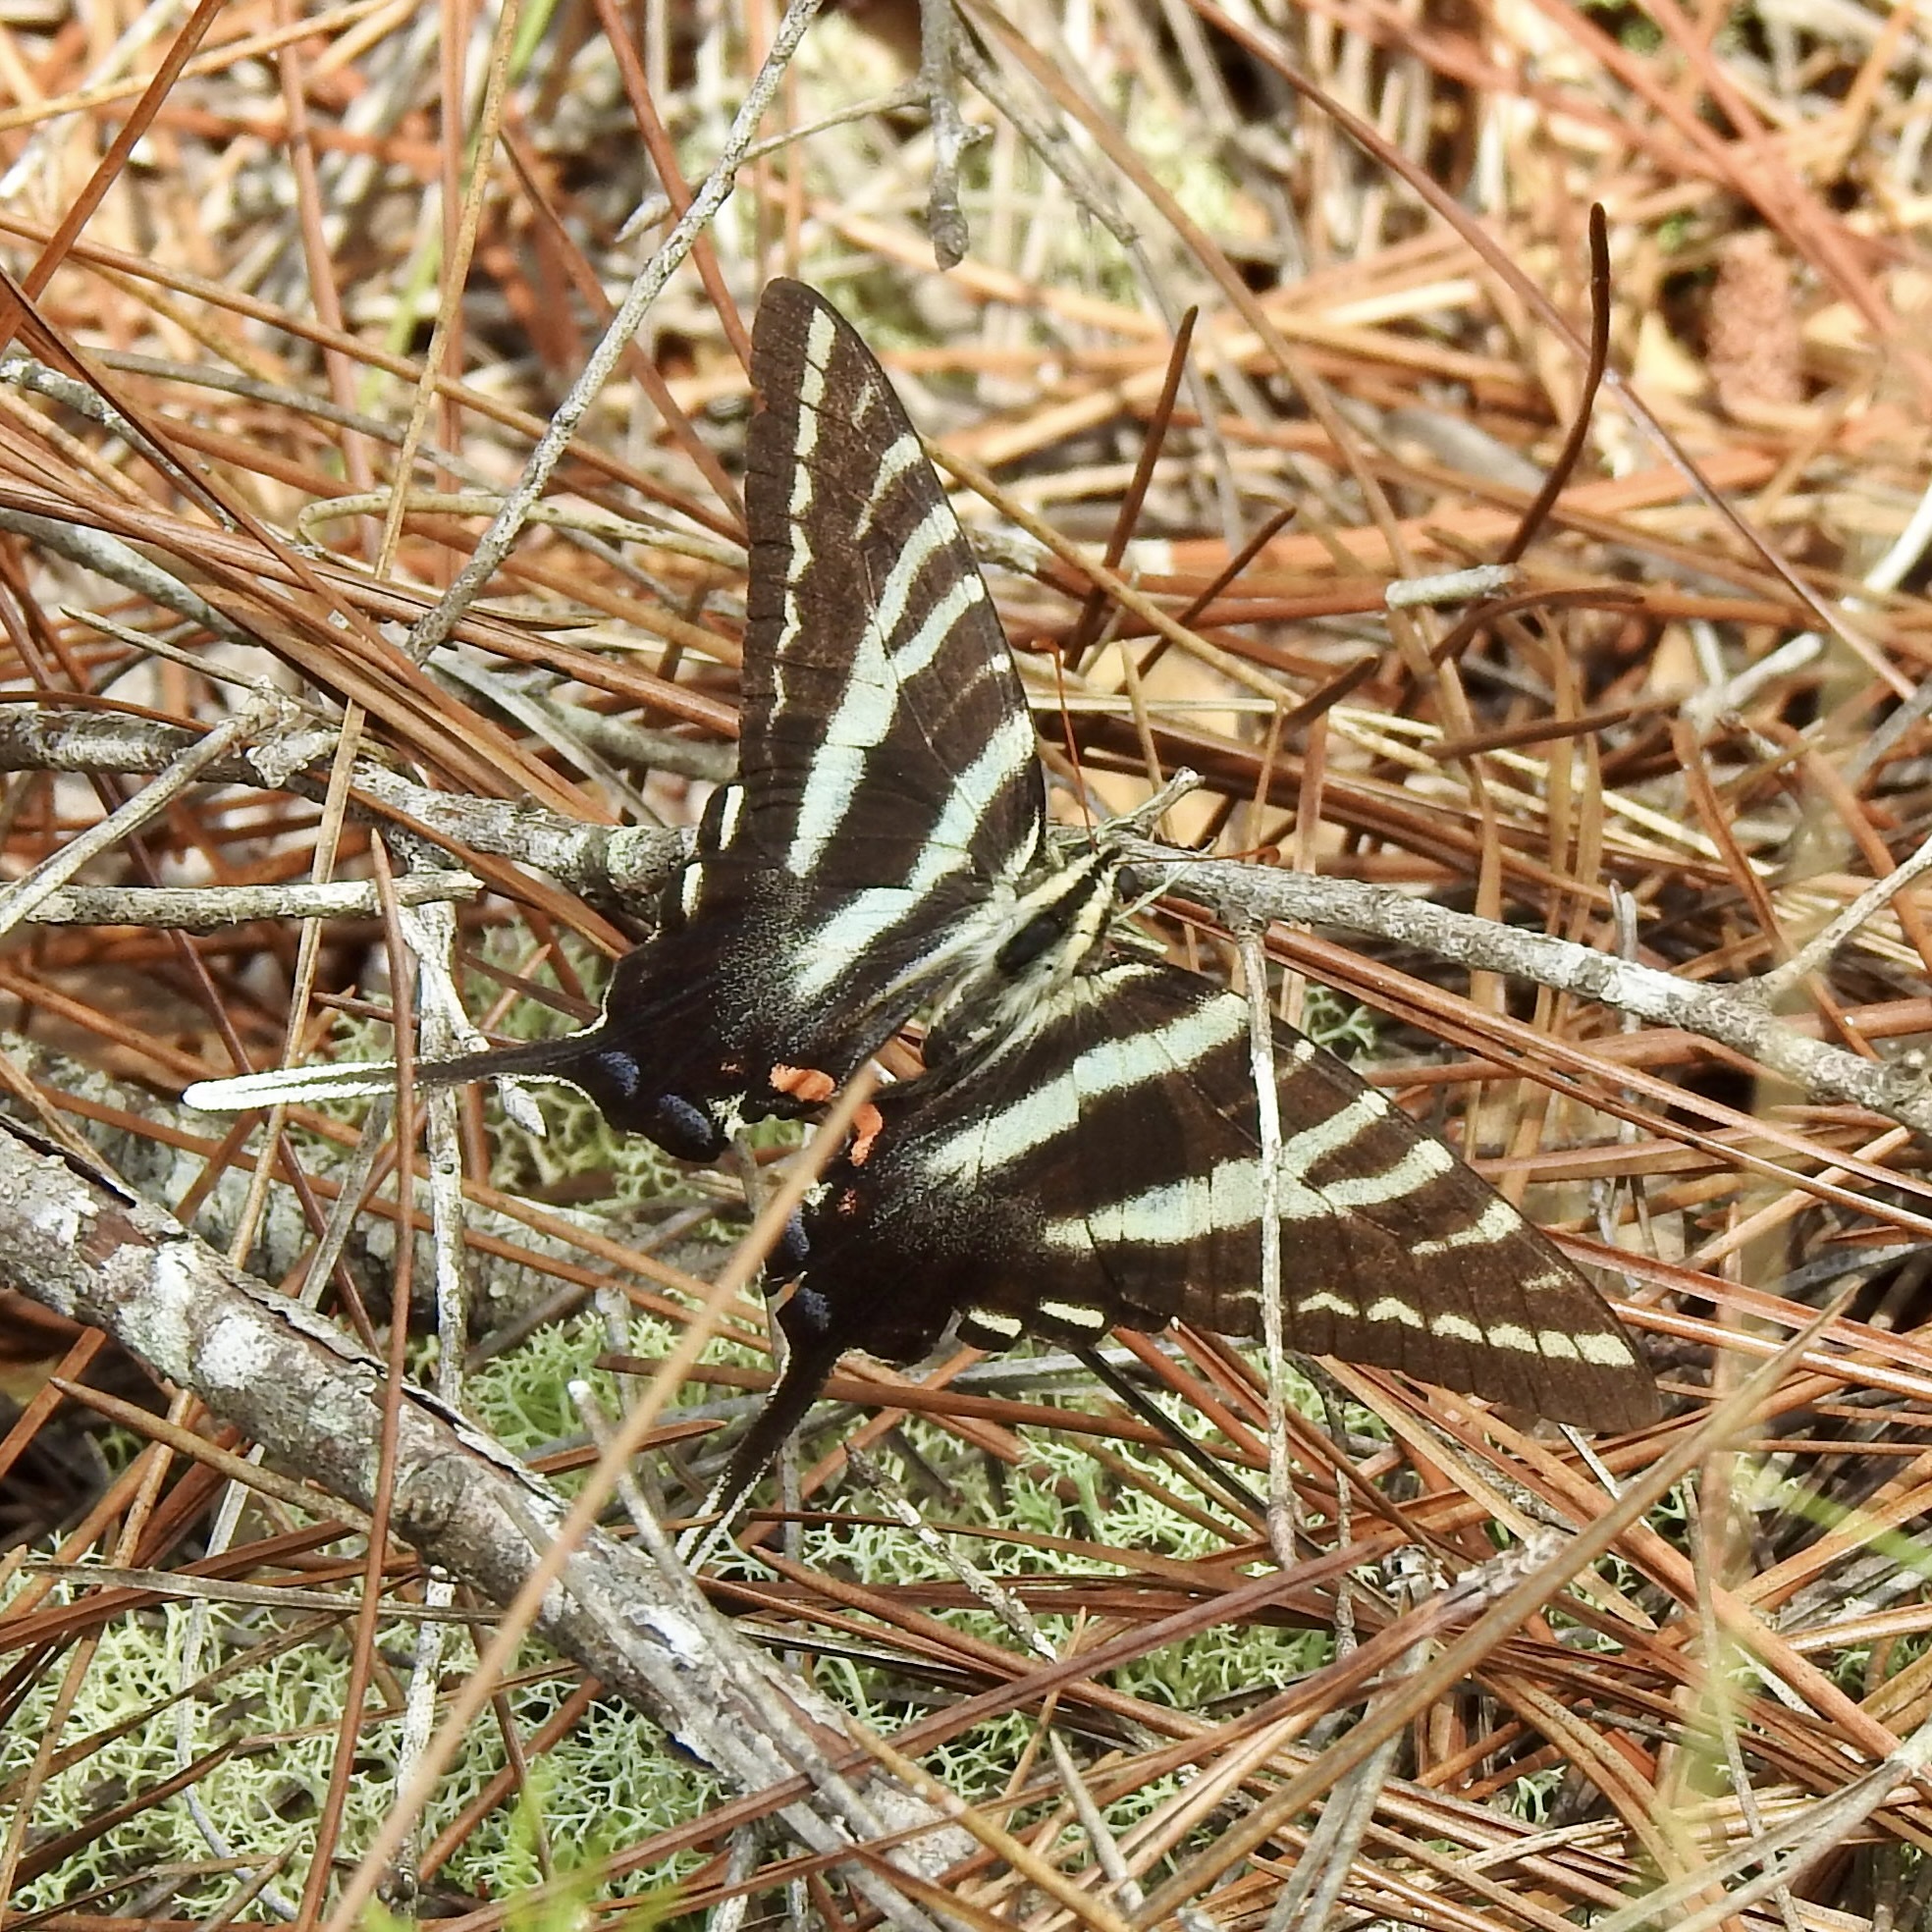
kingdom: Animalia
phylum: Arthropoda
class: Insecta
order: Lepidoptera
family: Papilionidae
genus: Protographium
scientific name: Protographium marcellus
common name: Zebra swallowtail
